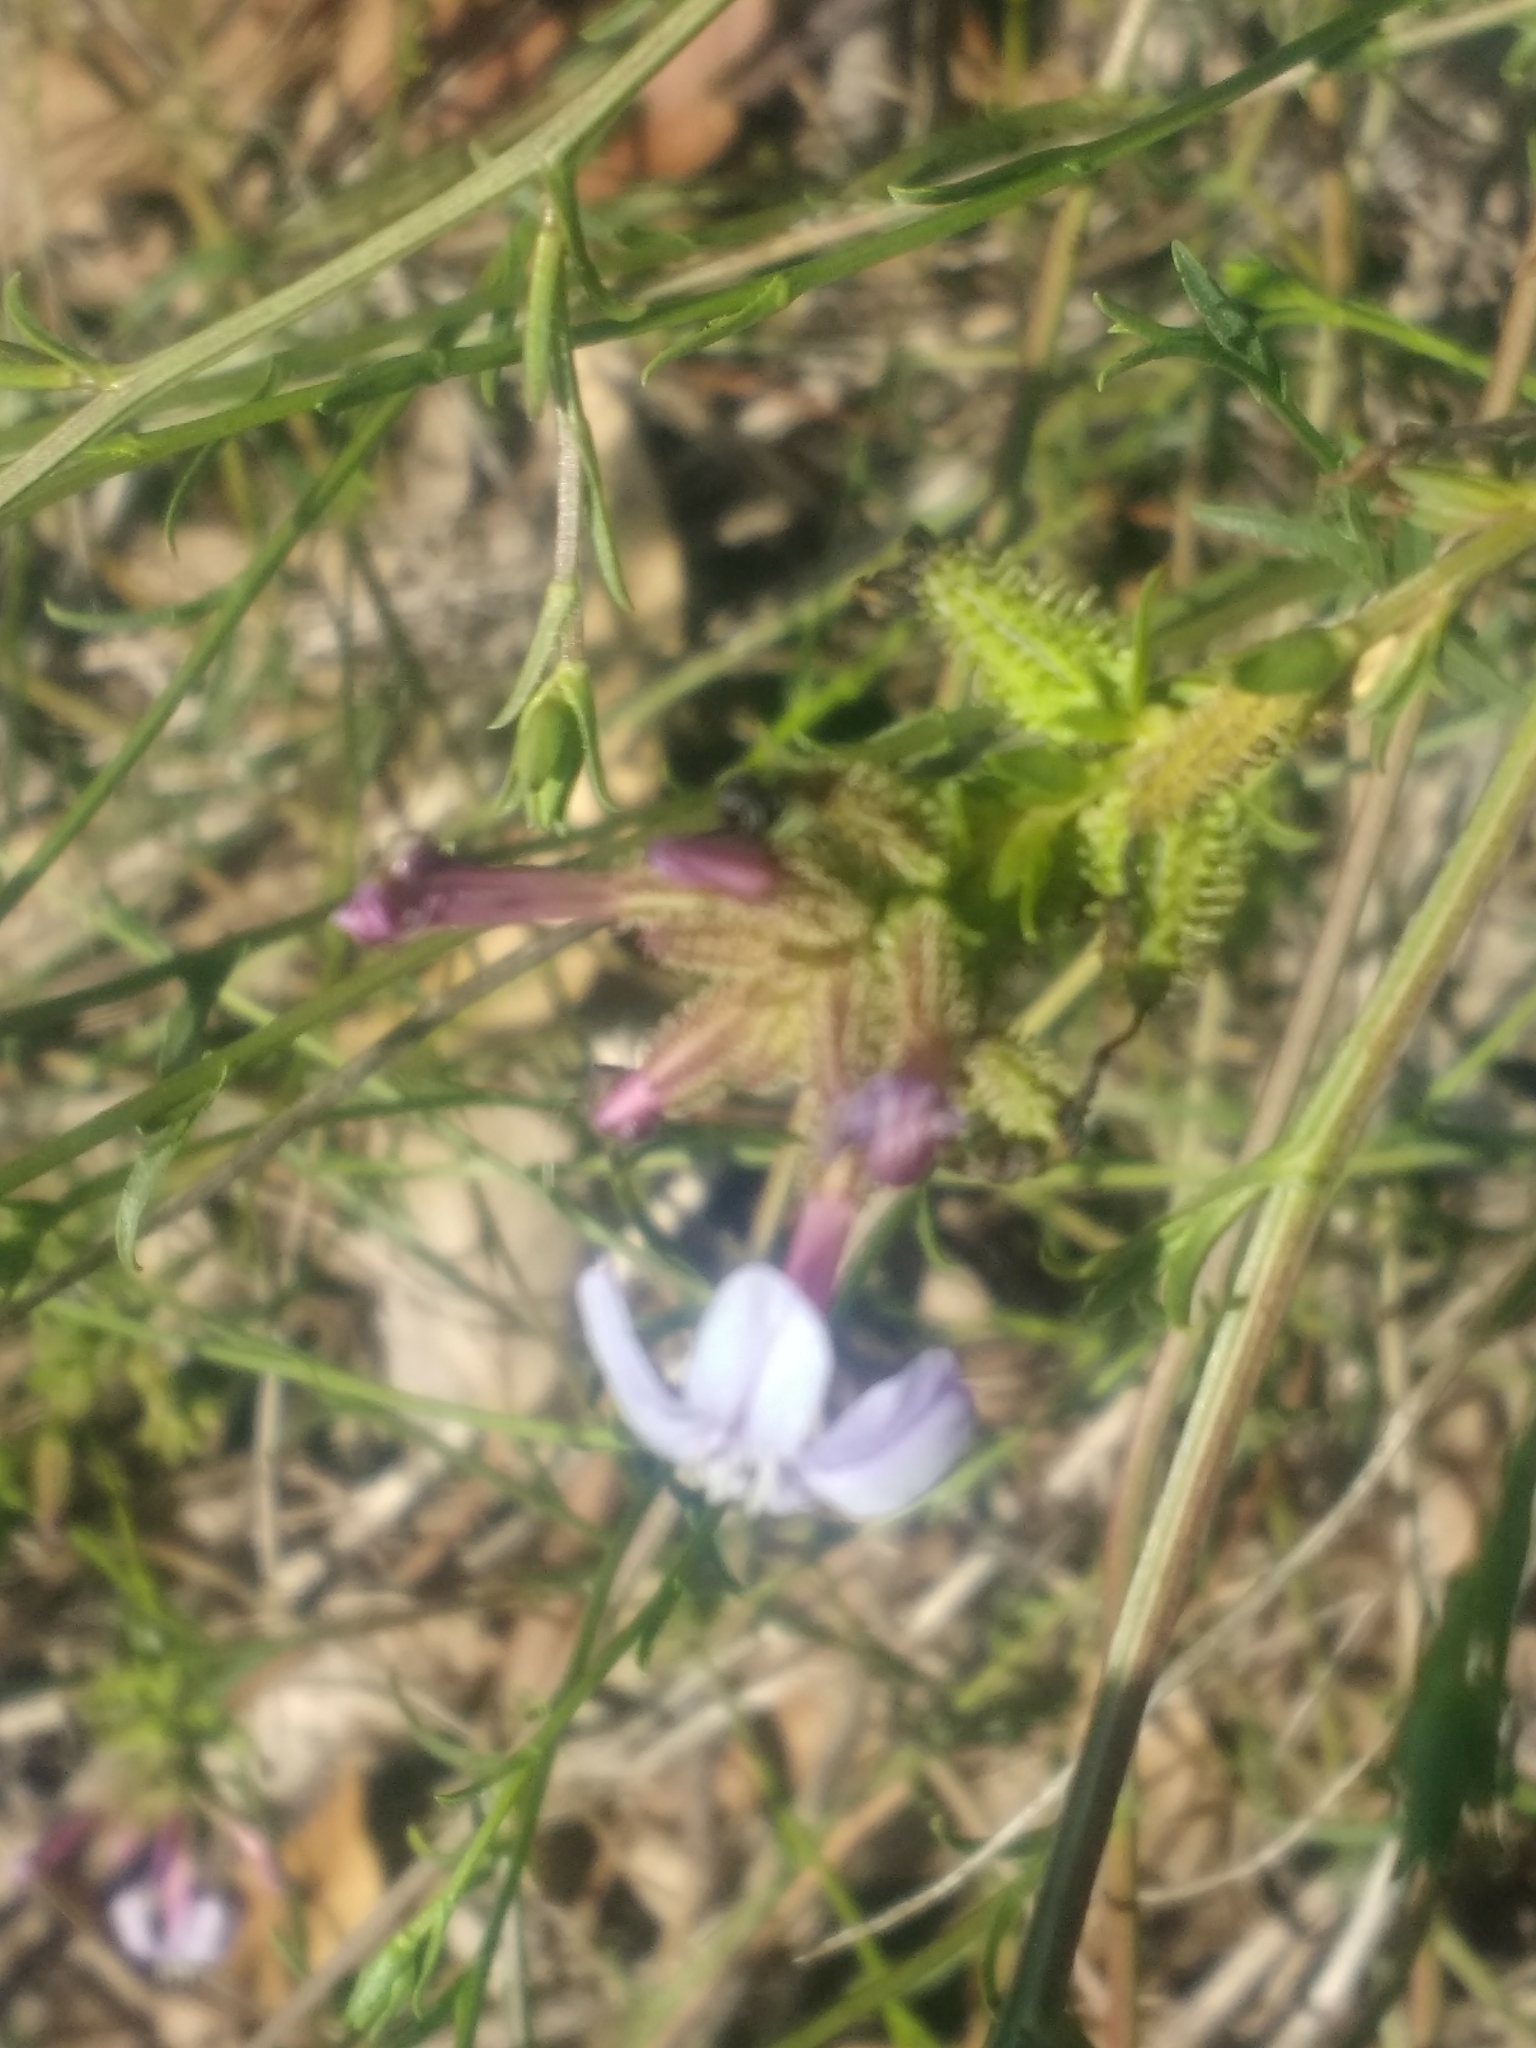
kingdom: Plantae
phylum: Tracheophyta
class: Magnoliopsida
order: Caryophyllales
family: Plumbaginaceae
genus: Plumbago
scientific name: Plumbago europaea
